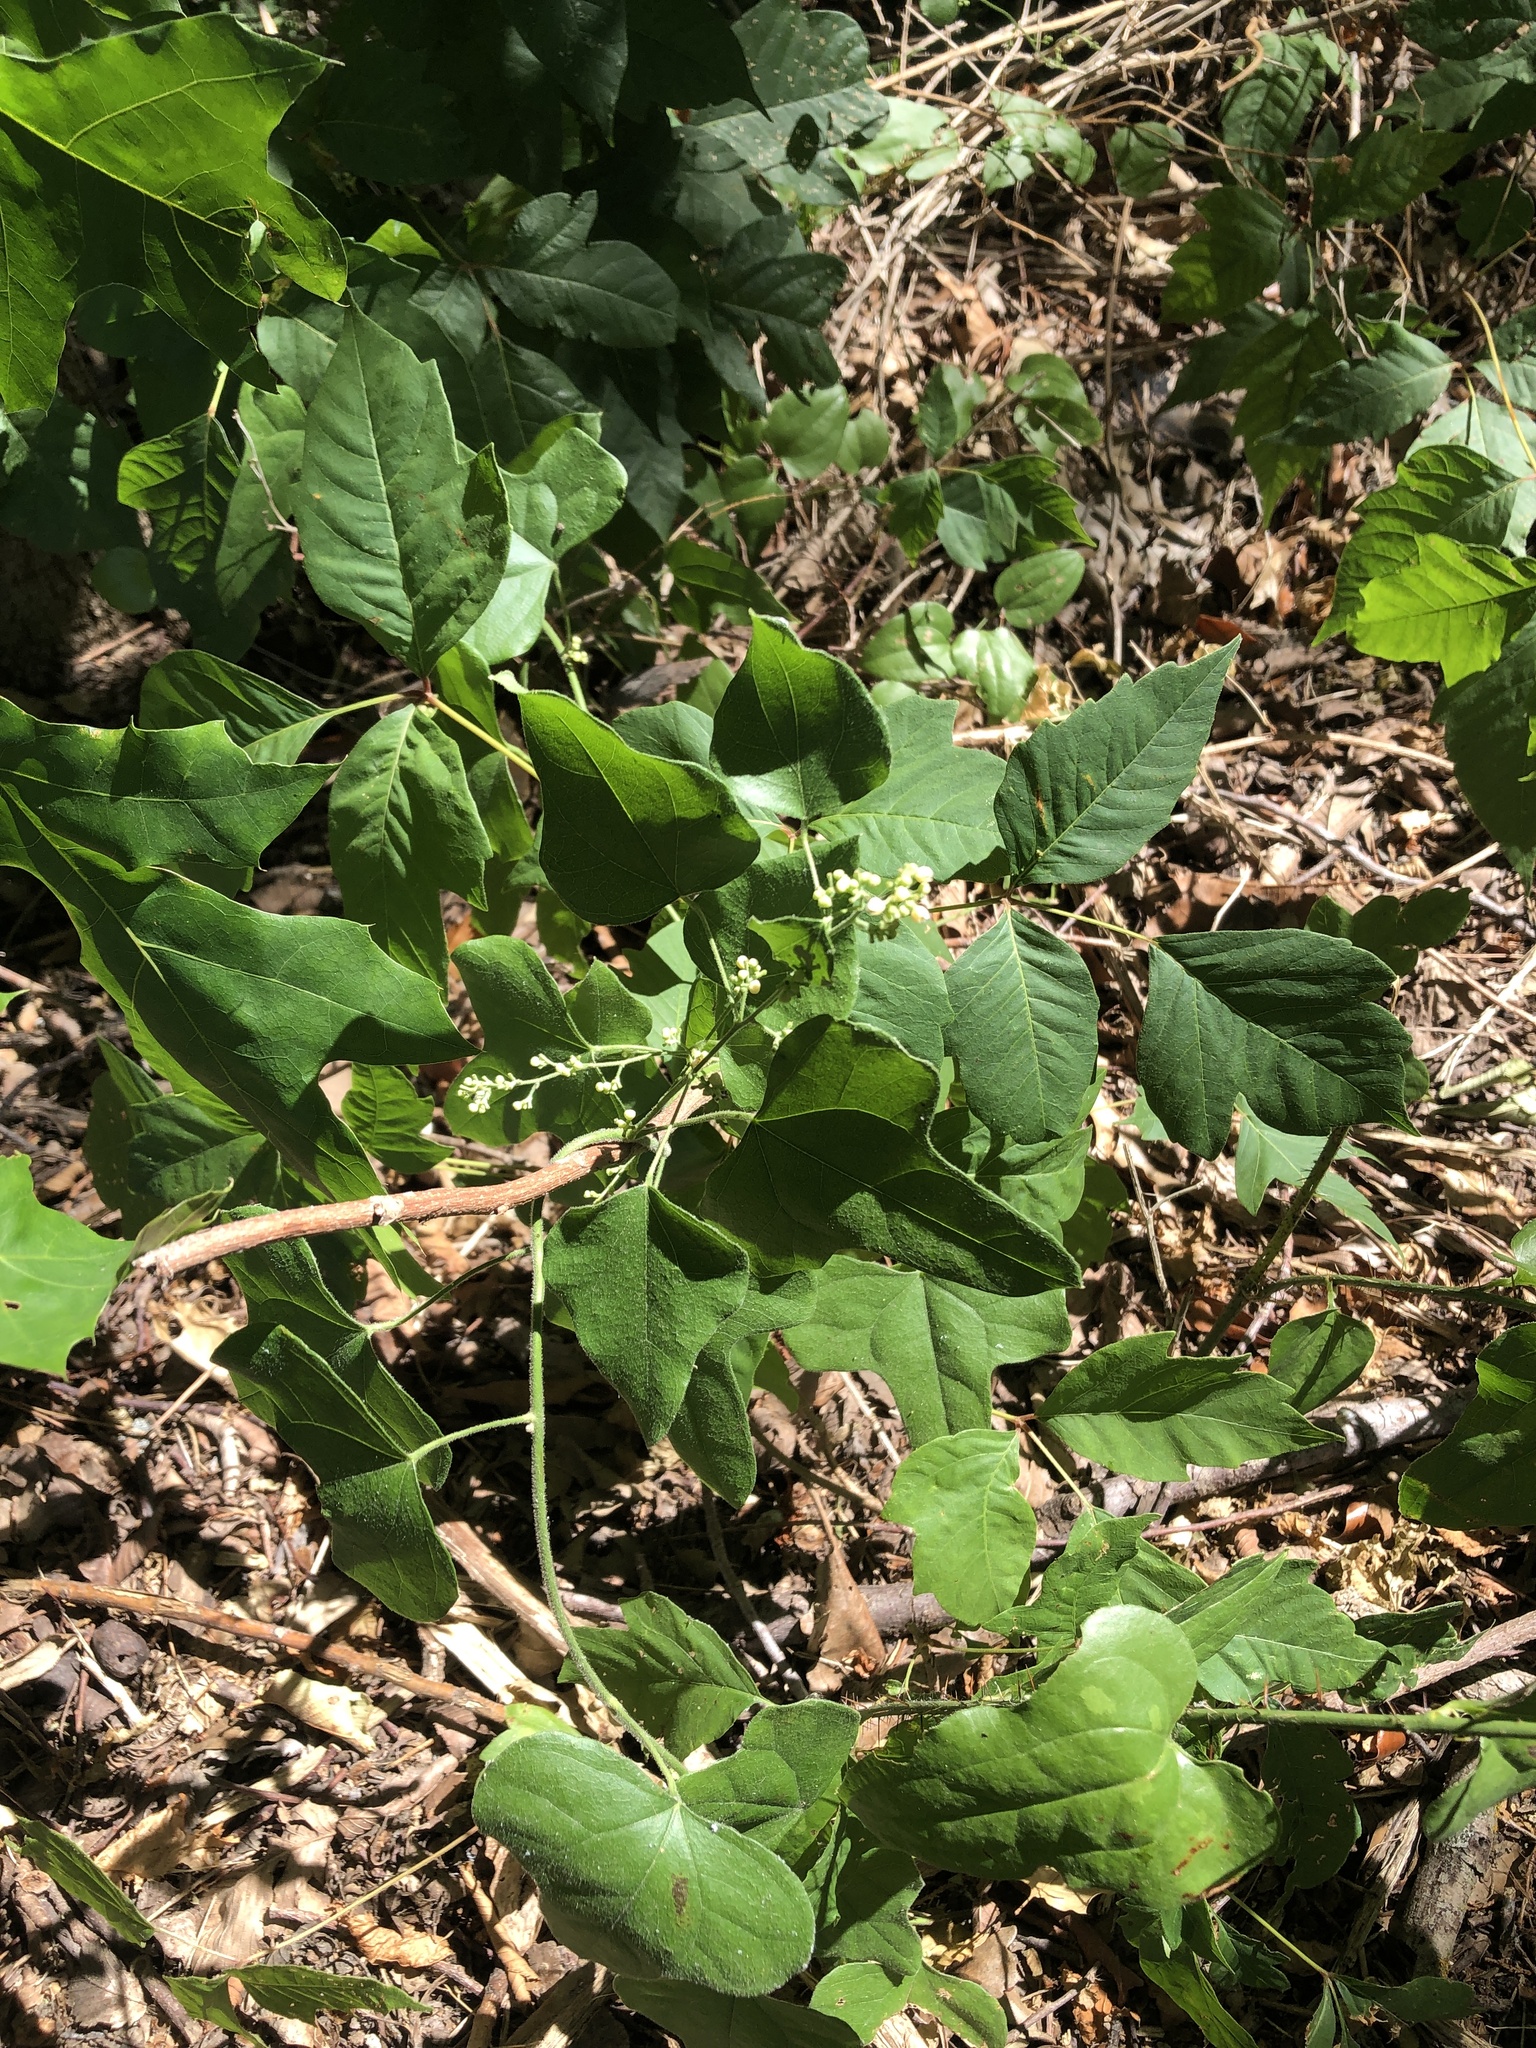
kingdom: Plantae
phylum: Tracheophyta
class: Magnoliopsida
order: Ranunculales
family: Menispermaceae
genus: Cocculus
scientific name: Cocculus carolinus
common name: Carolina moonseed
